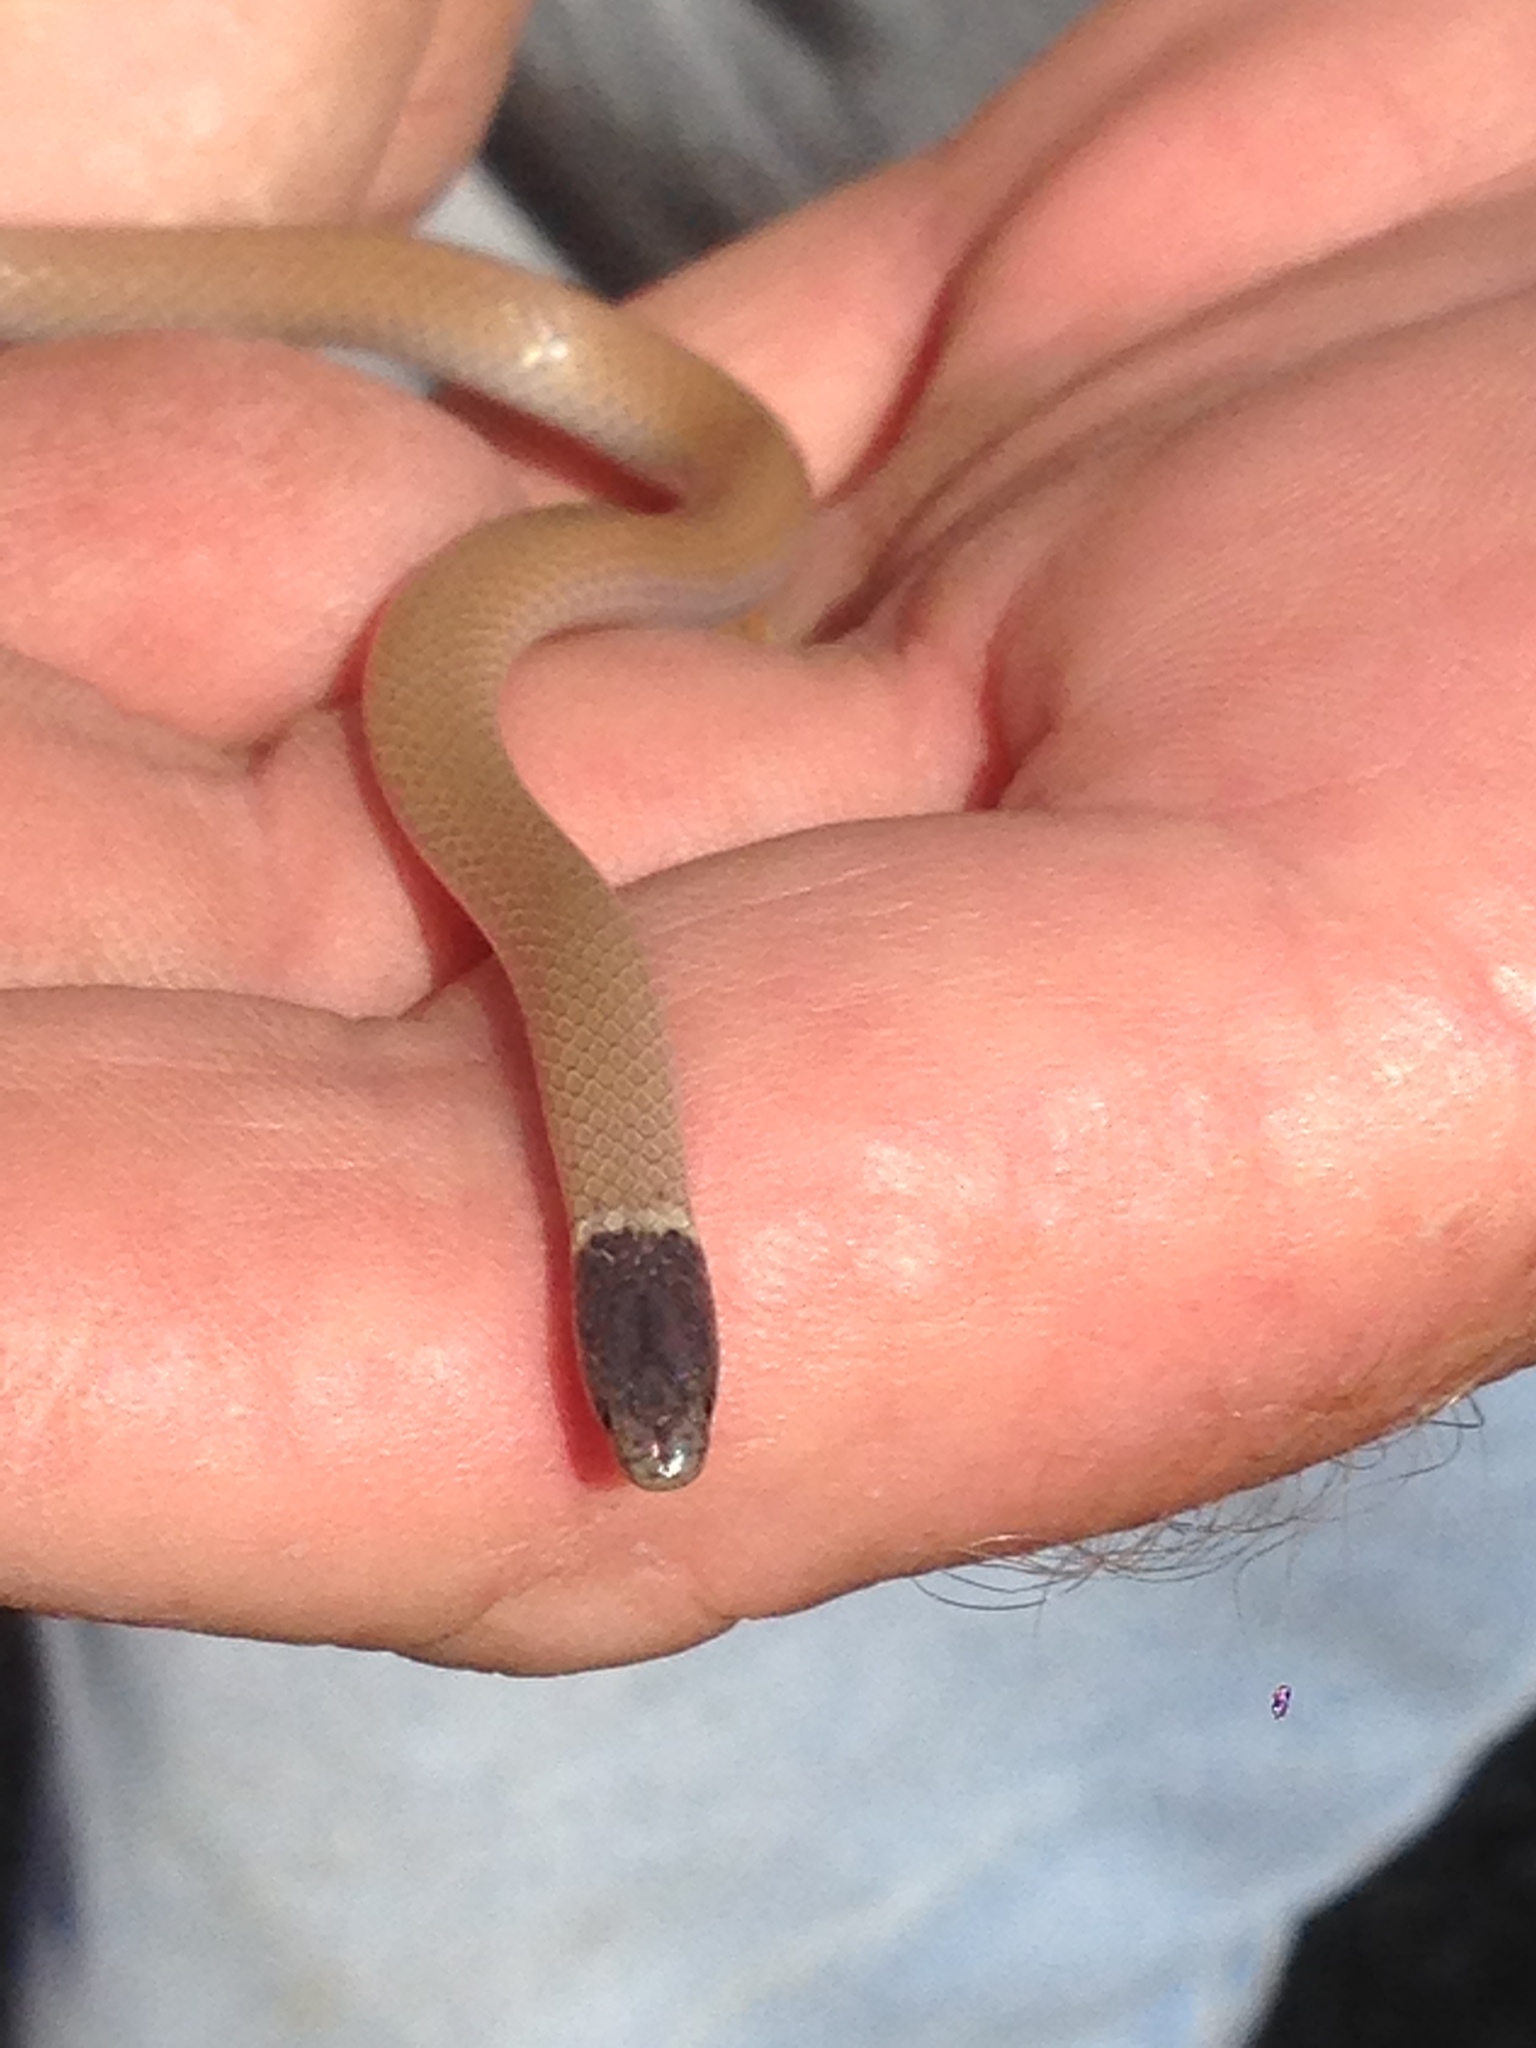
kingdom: Animalia
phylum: Chordata
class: Squamata
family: Colubridae
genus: Tantilla
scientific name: Tantilla planiceps
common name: Western blackhead snake
